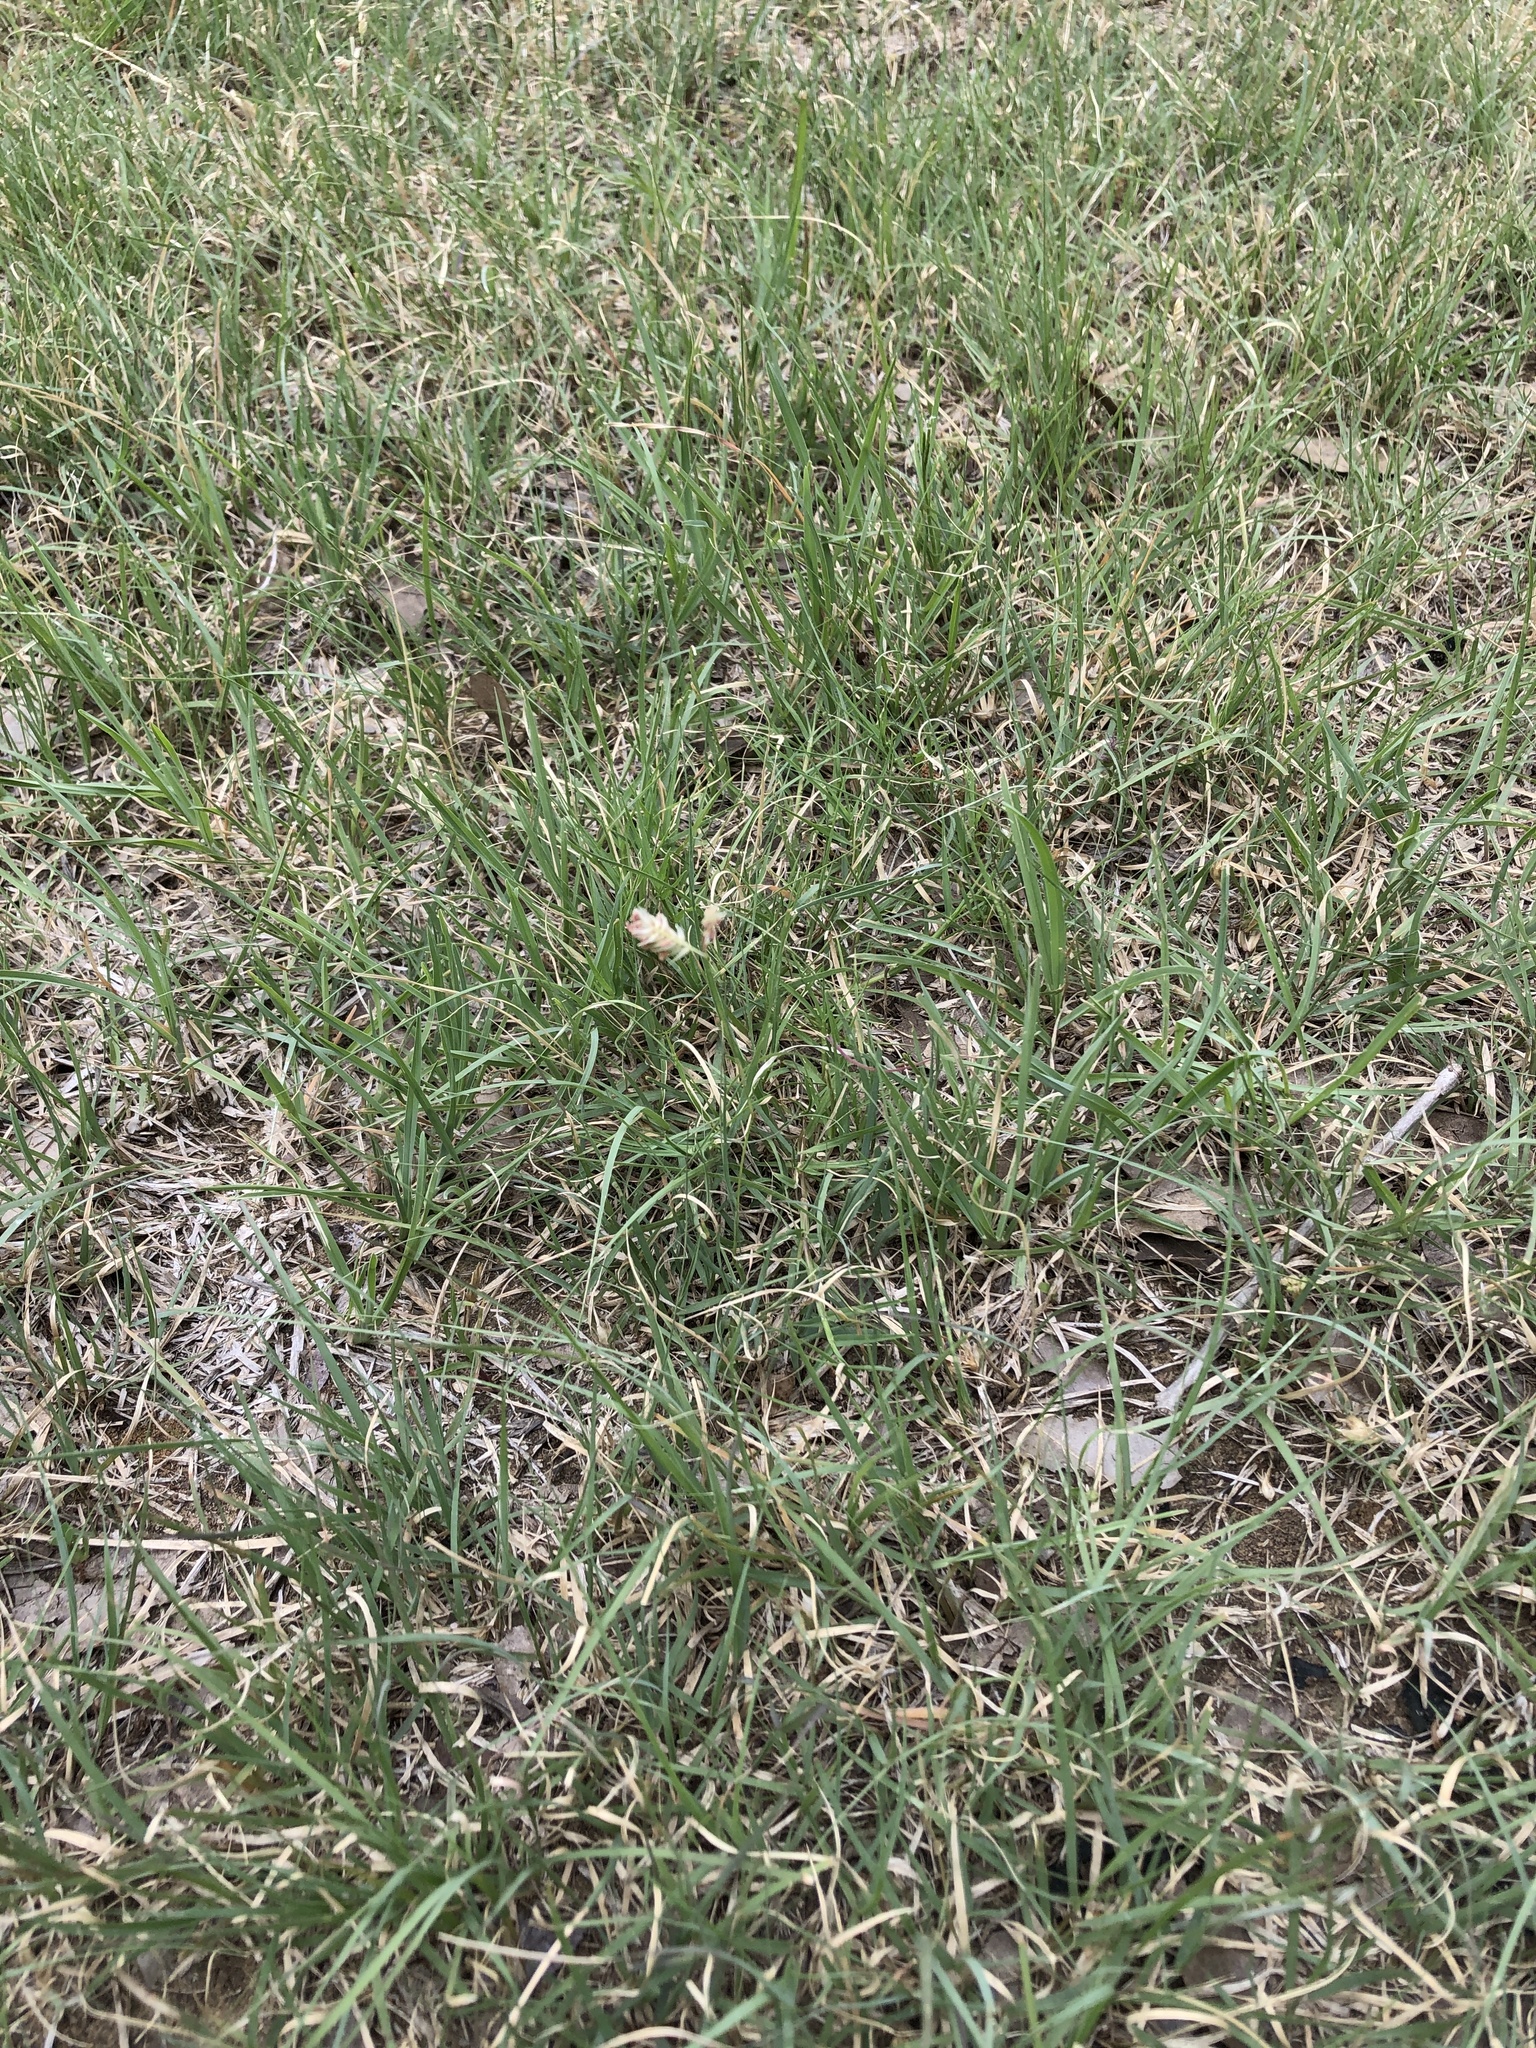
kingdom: Plantae
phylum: Tracheophyta
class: Liliopsida
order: Poales
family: Poaceae
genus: Bouteloua
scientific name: Bouteloua dactyloides
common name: Buffalo grass
